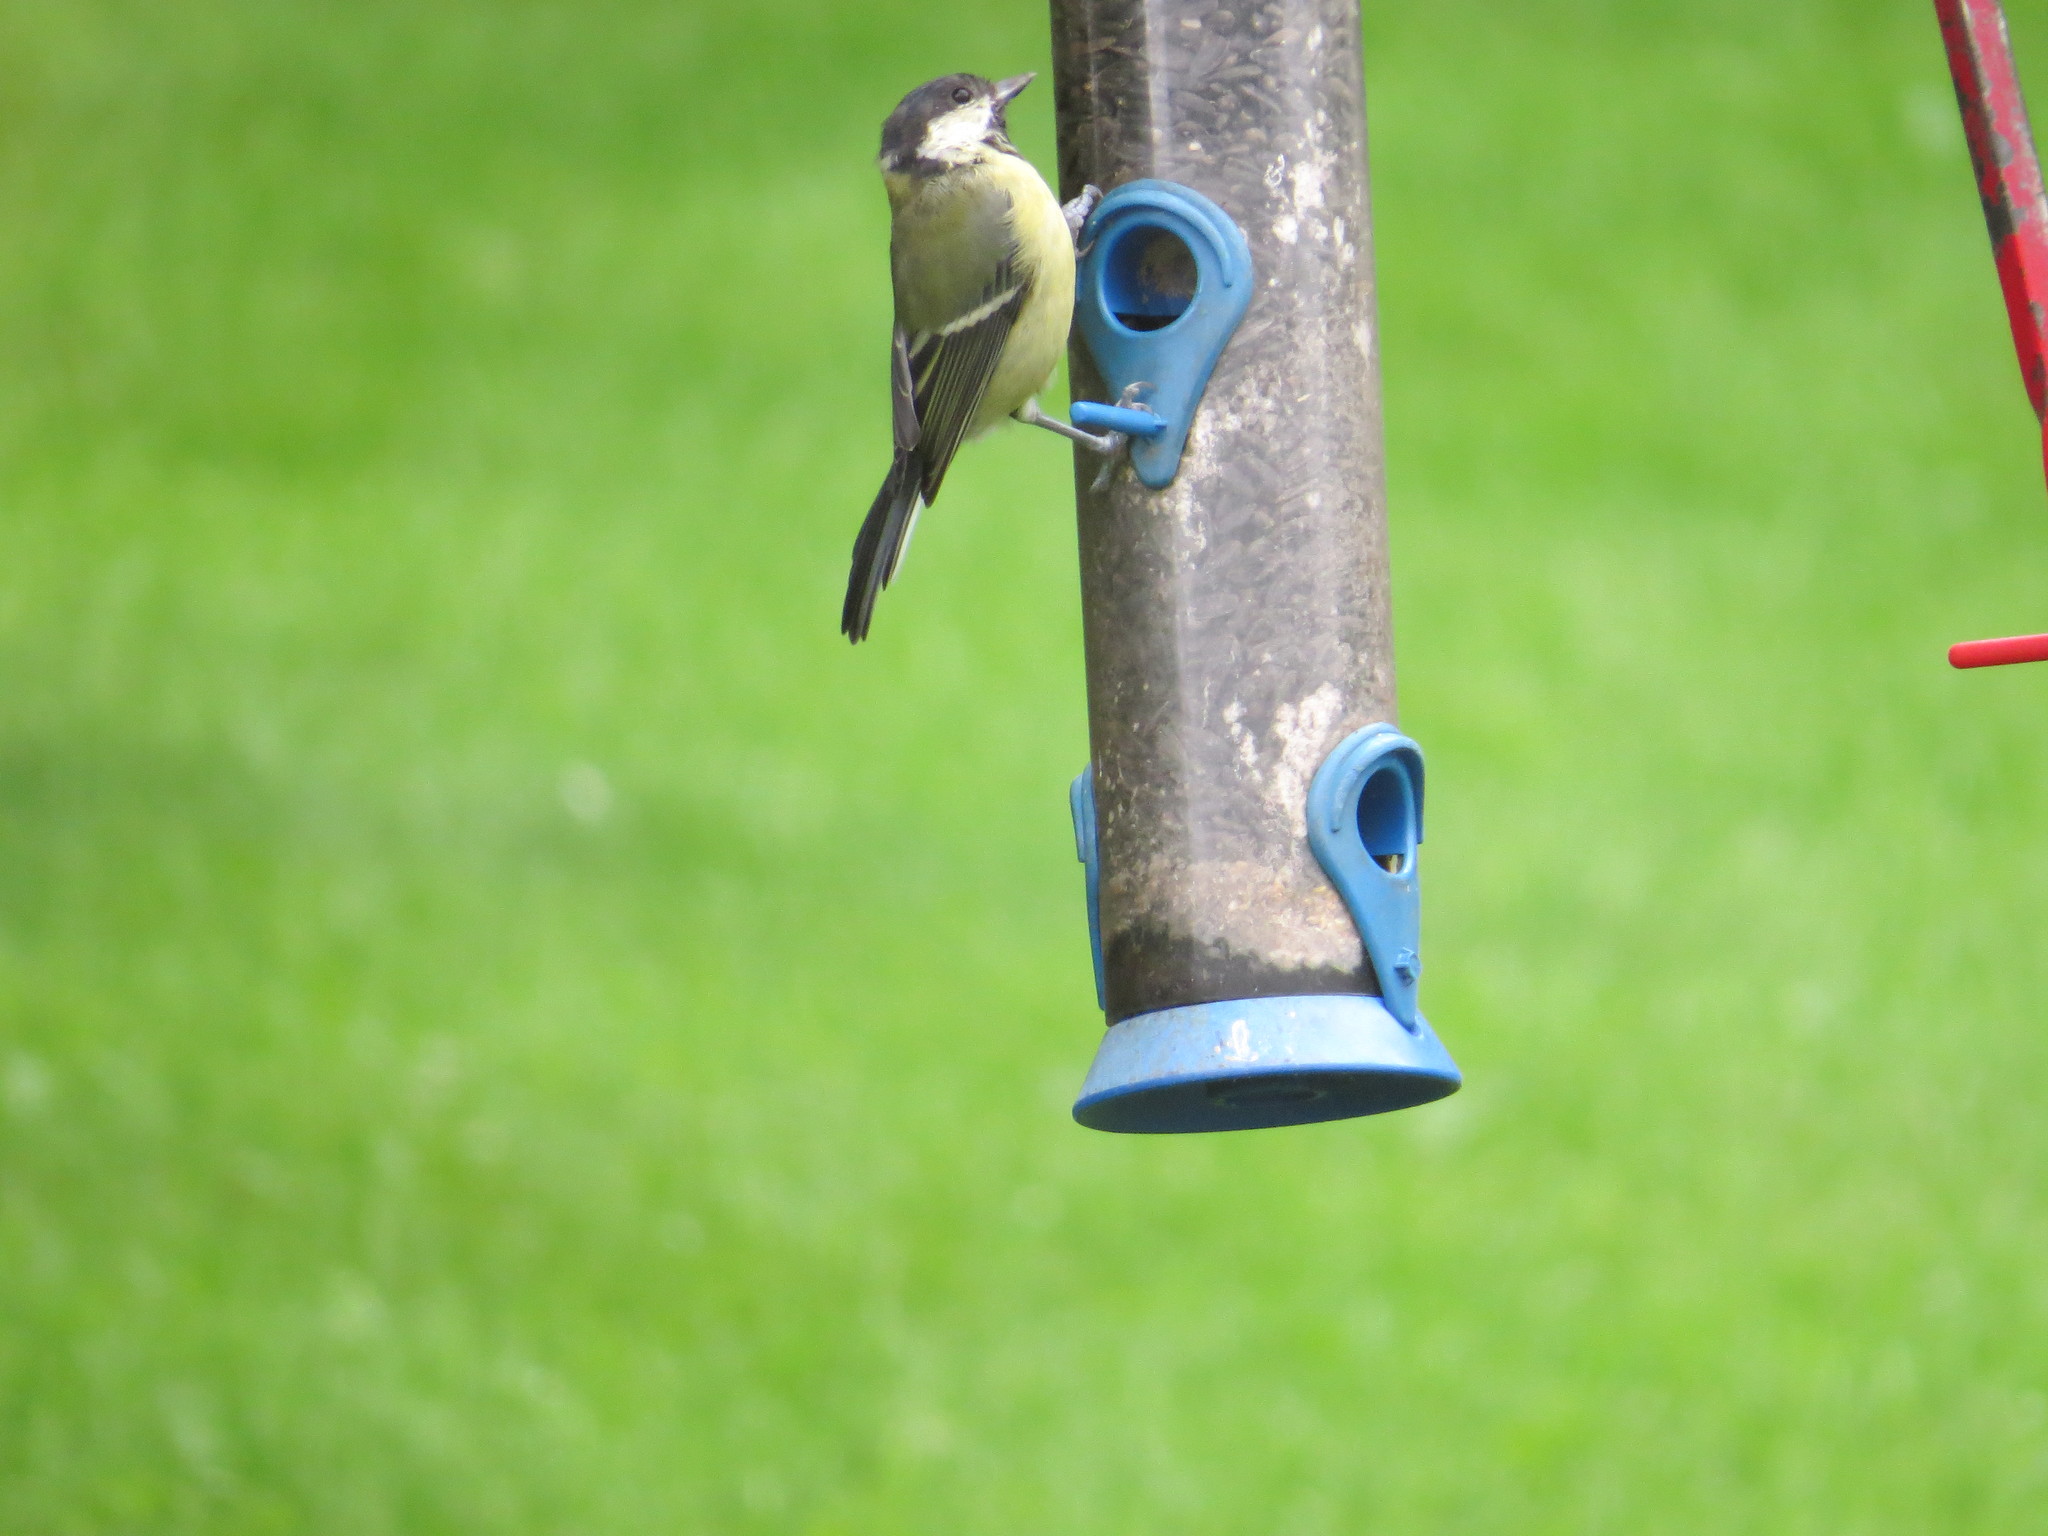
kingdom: Animalia
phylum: Chordata
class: Aves
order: Passeriformes
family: Paridae
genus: Parus
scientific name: Parus major
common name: Great tit
